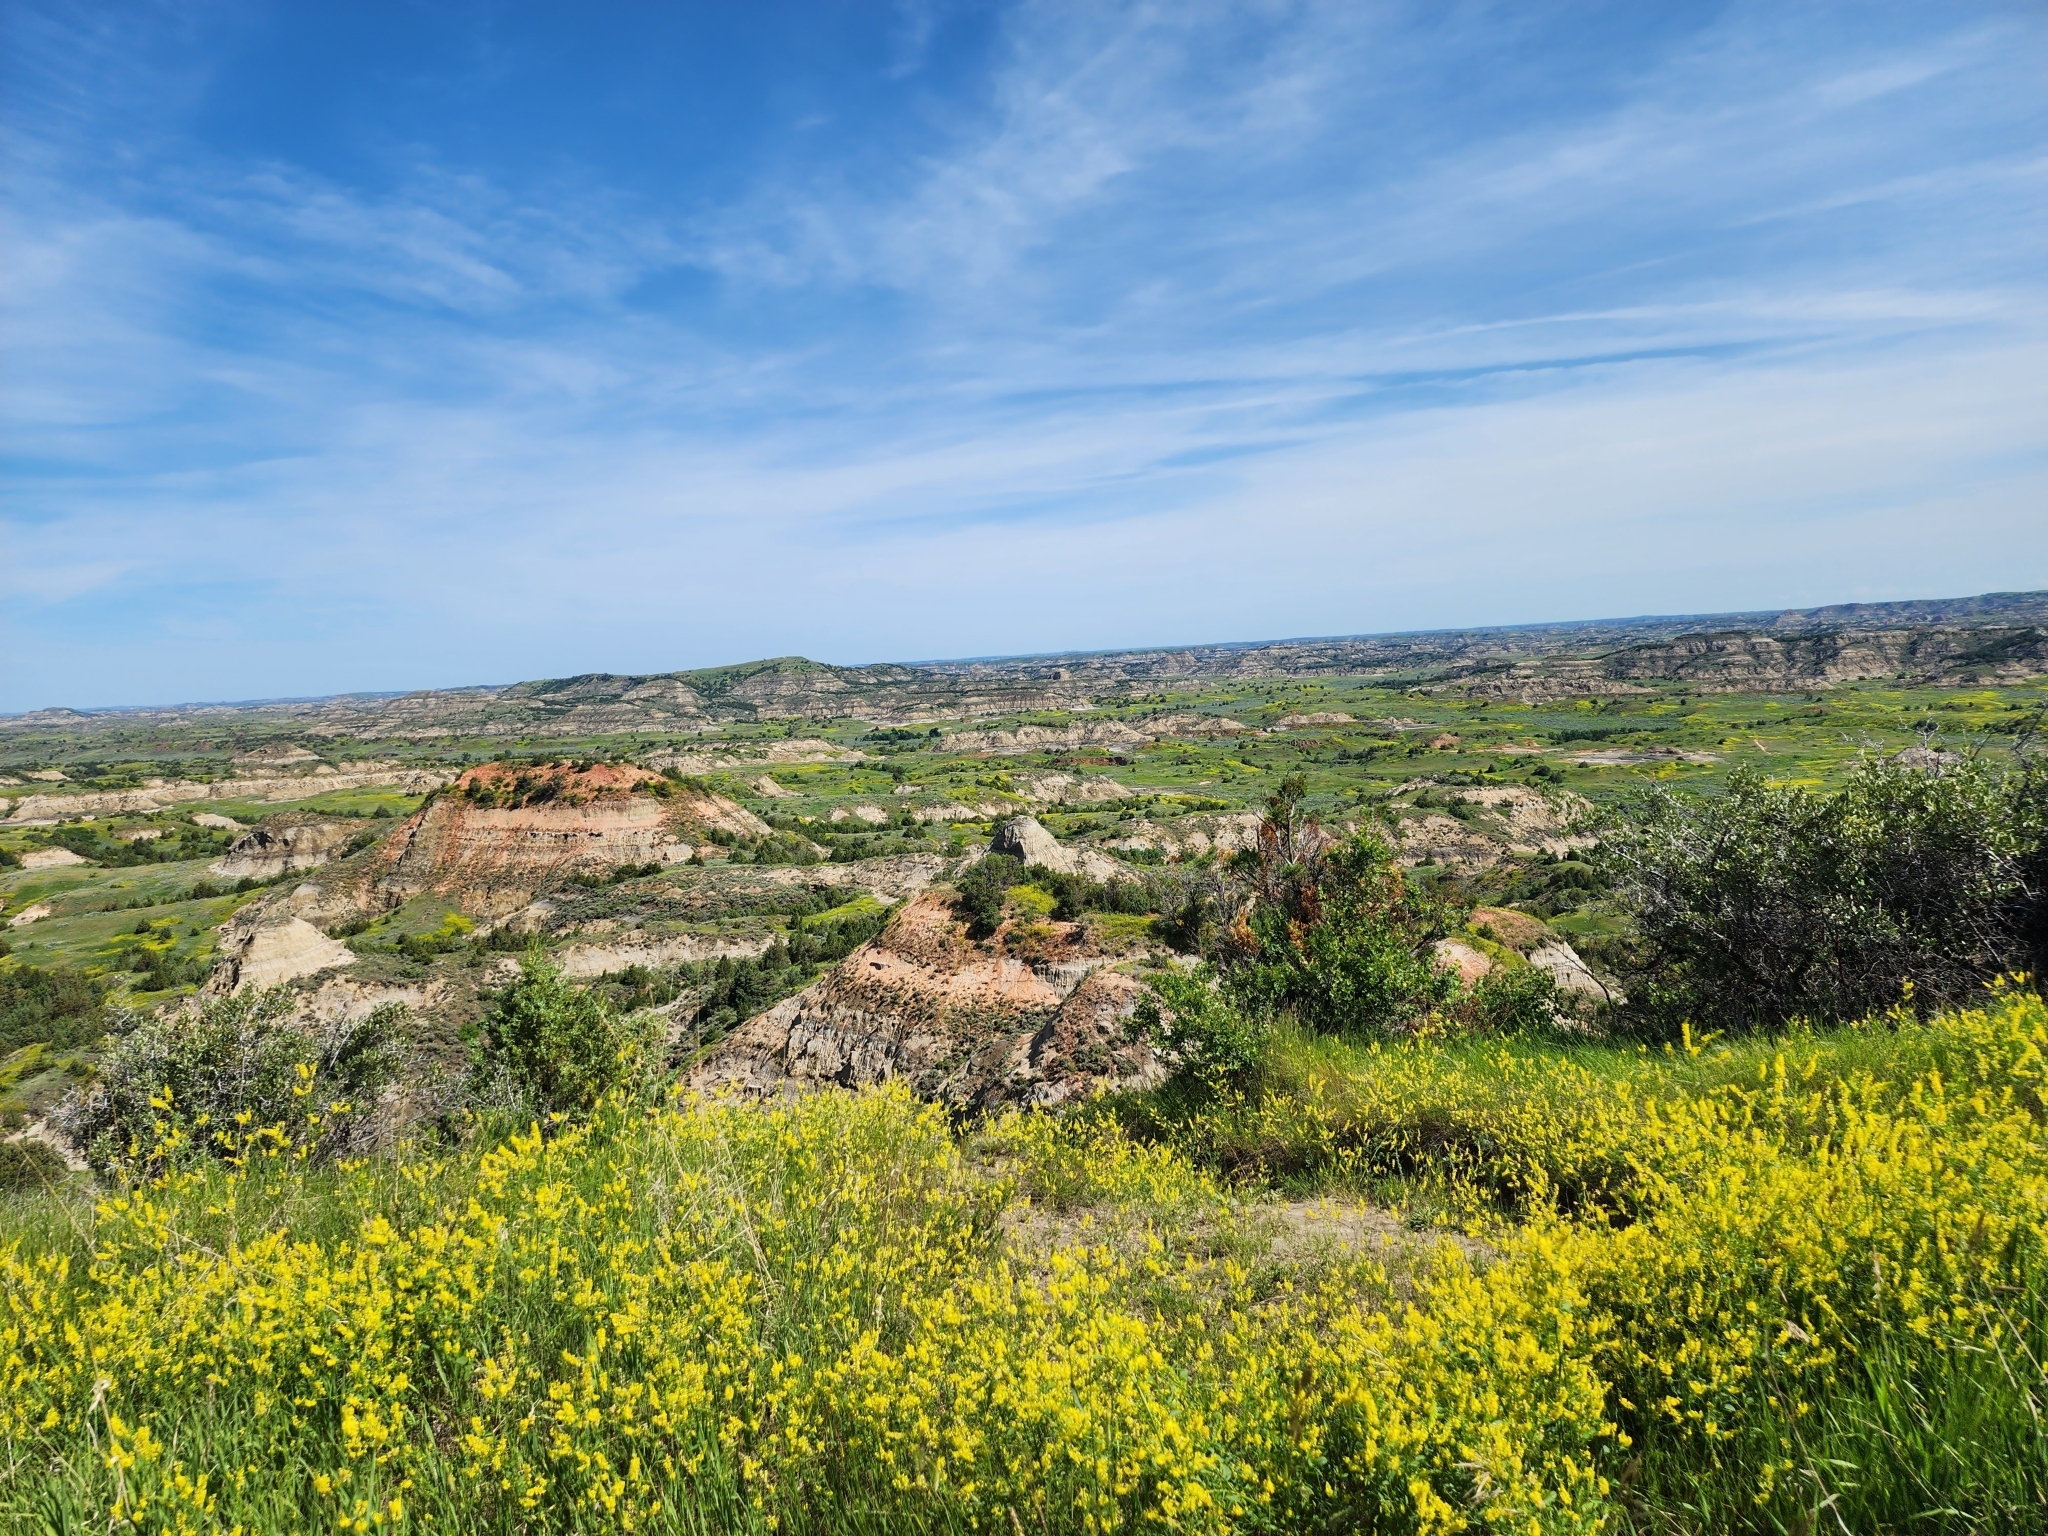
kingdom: Plantae
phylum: Tracheophyta
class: Magnoliopsida
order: Fabales
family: Fabaceae
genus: Melilotus
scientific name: Melilotus officinalis
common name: Sweetclover
